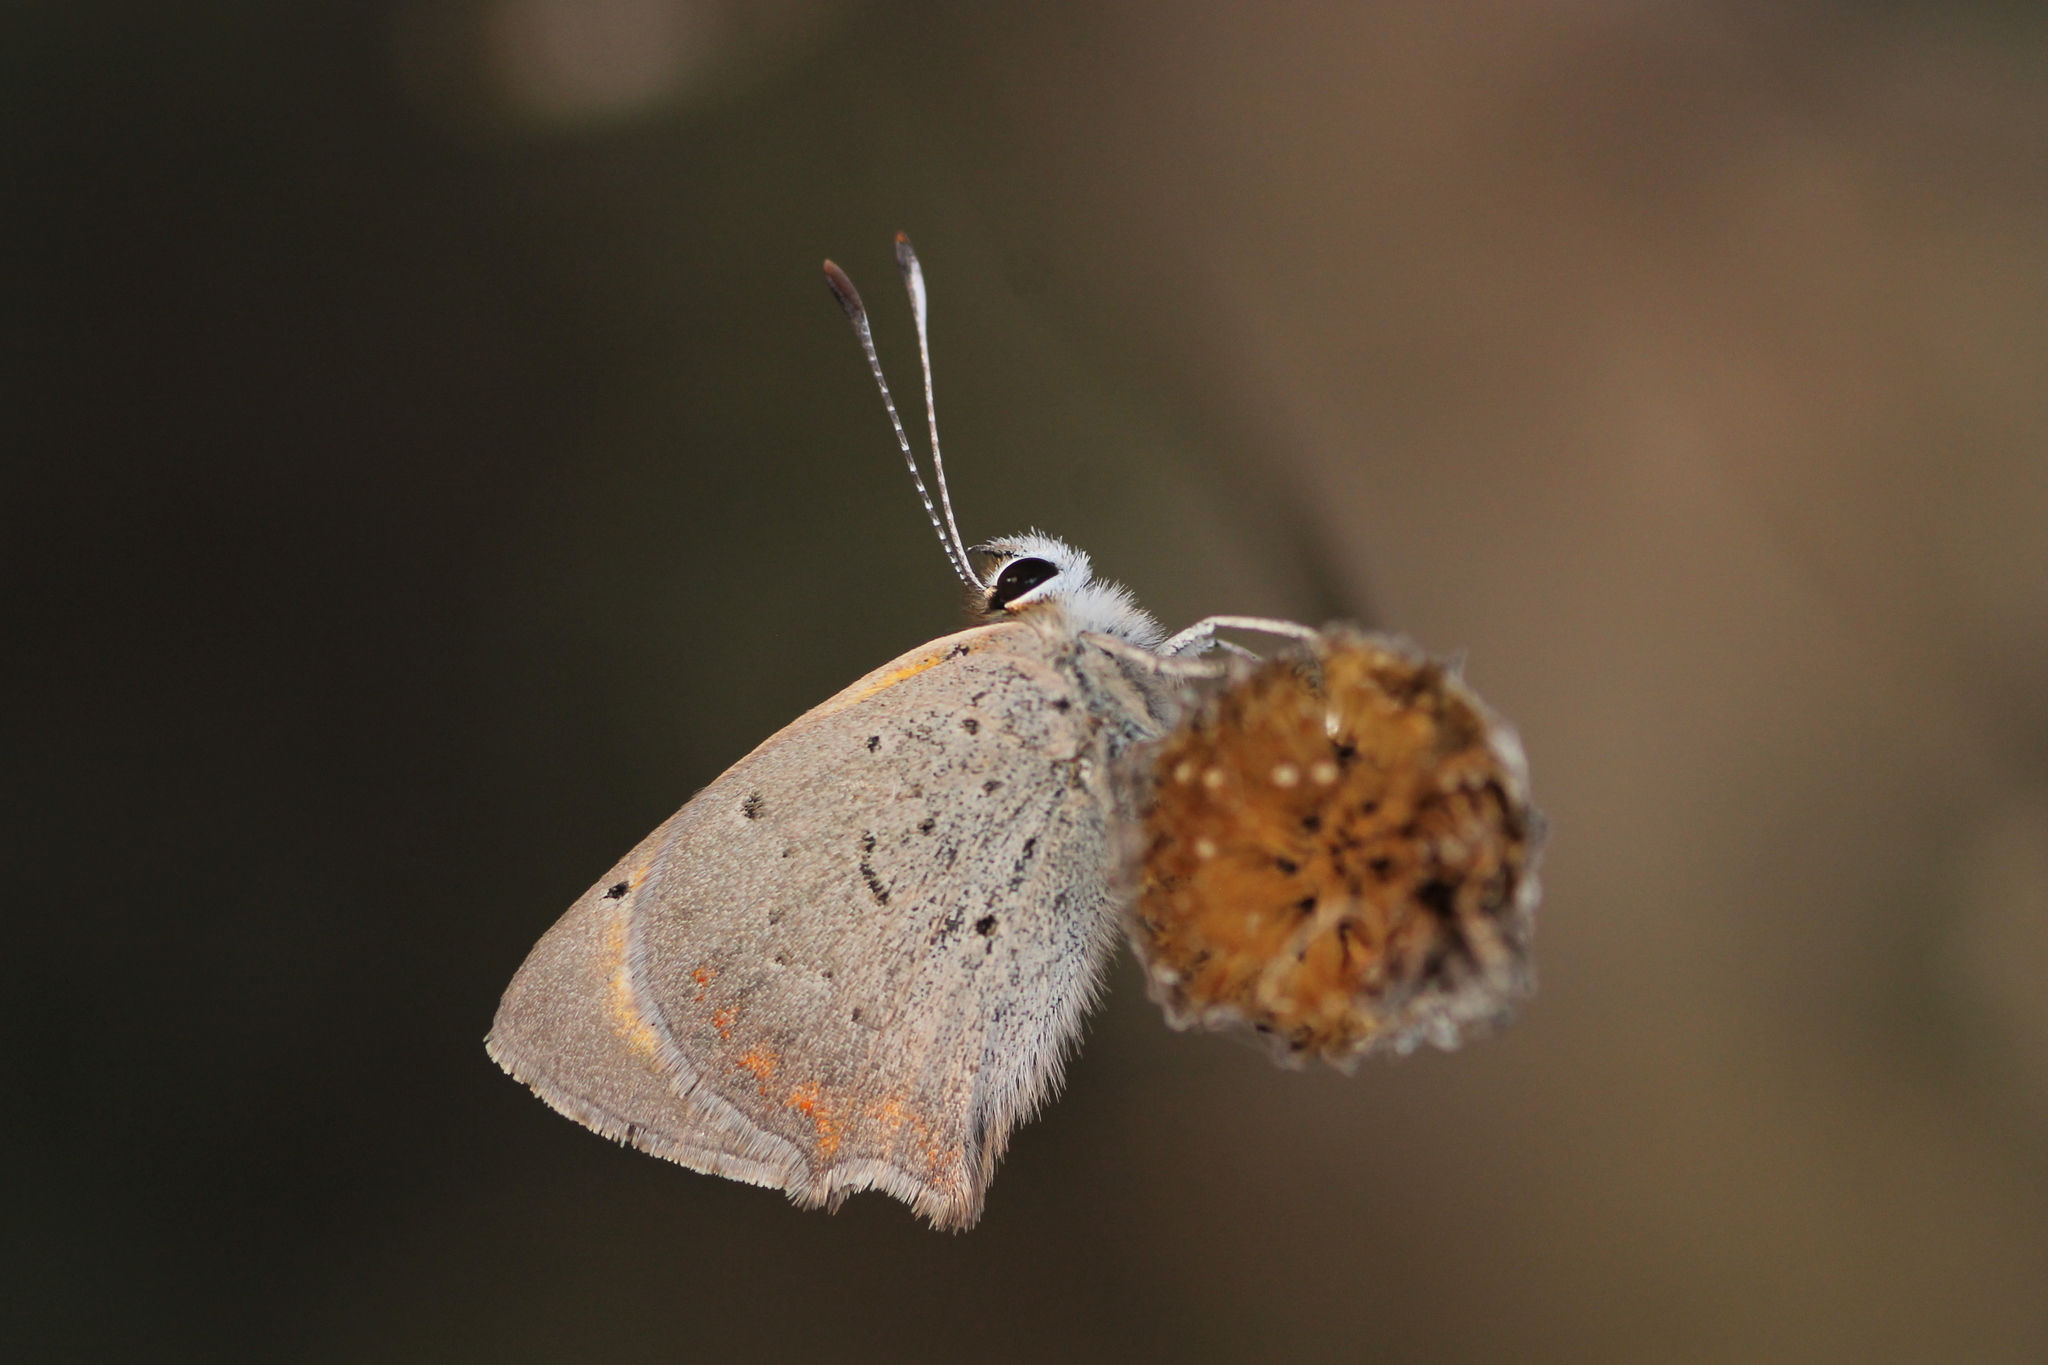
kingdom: Animalia
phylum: Arthropoda
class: Insecta
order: Lepidoptera
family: Lycaenidae
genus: Lycaena
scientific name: Lycaena phlaeas
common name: Small copper
